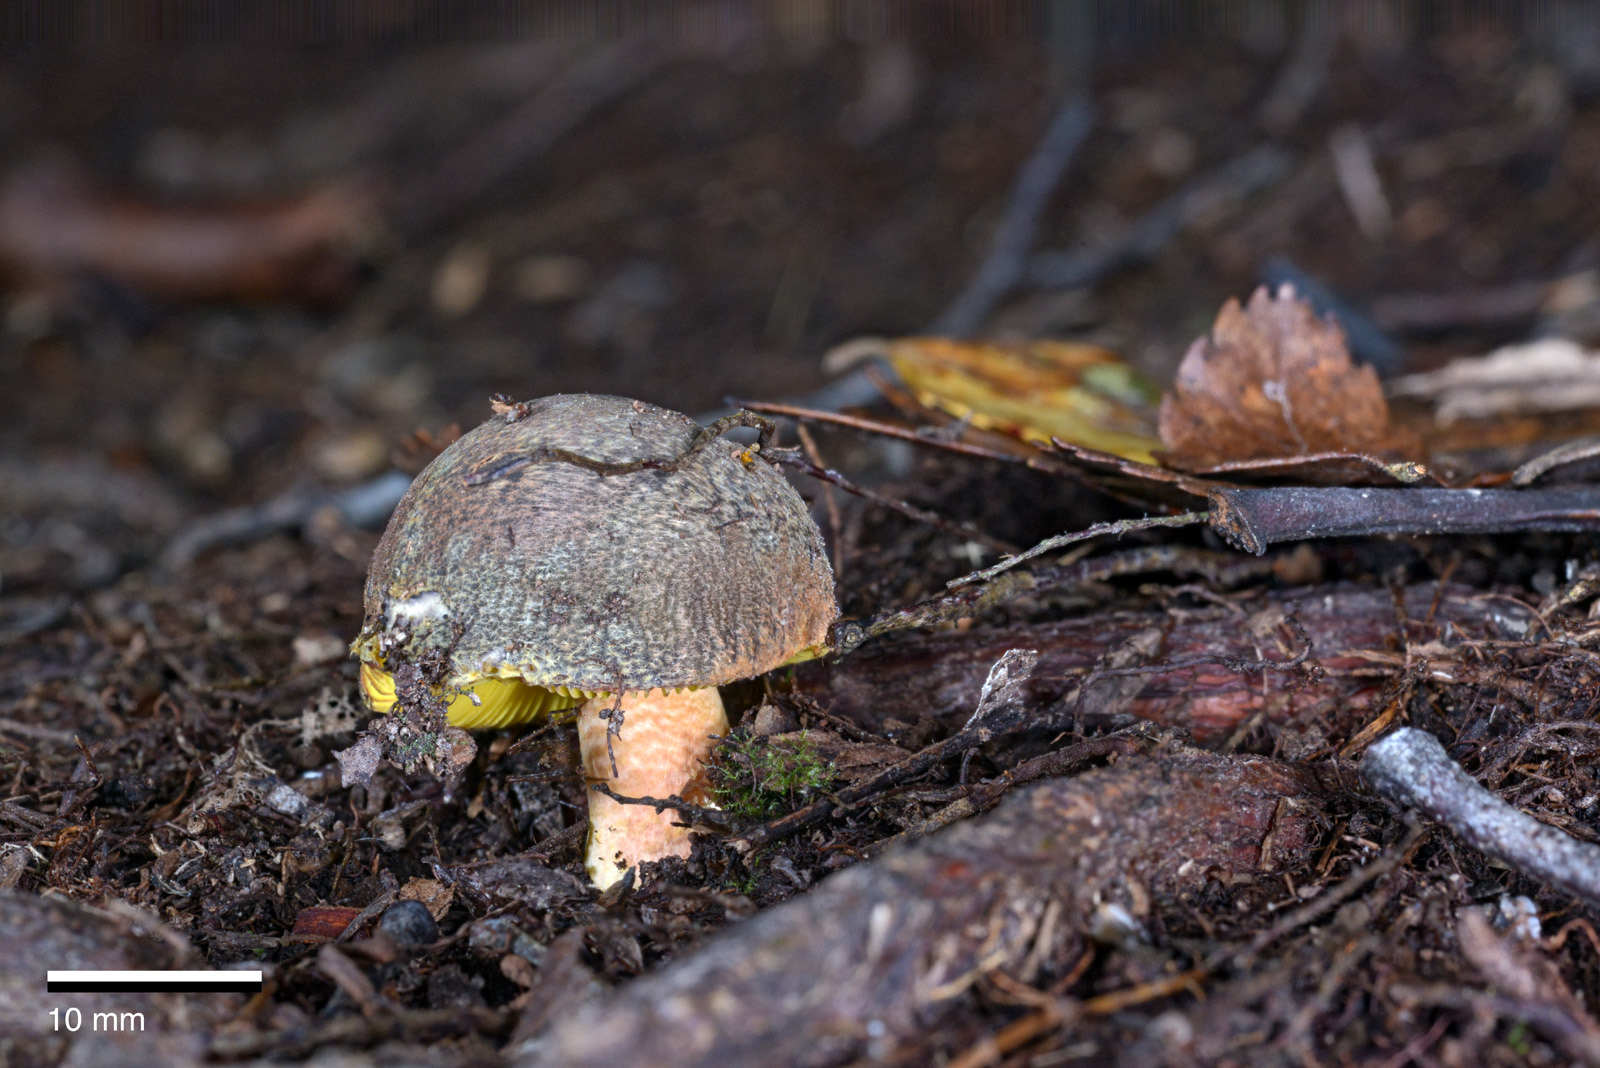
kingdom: Fungi
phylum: Basidiomycota
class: Agaricomycetes
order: Russulales
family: Russulaceae
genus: Russula
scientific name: Russula tricholomopsis
